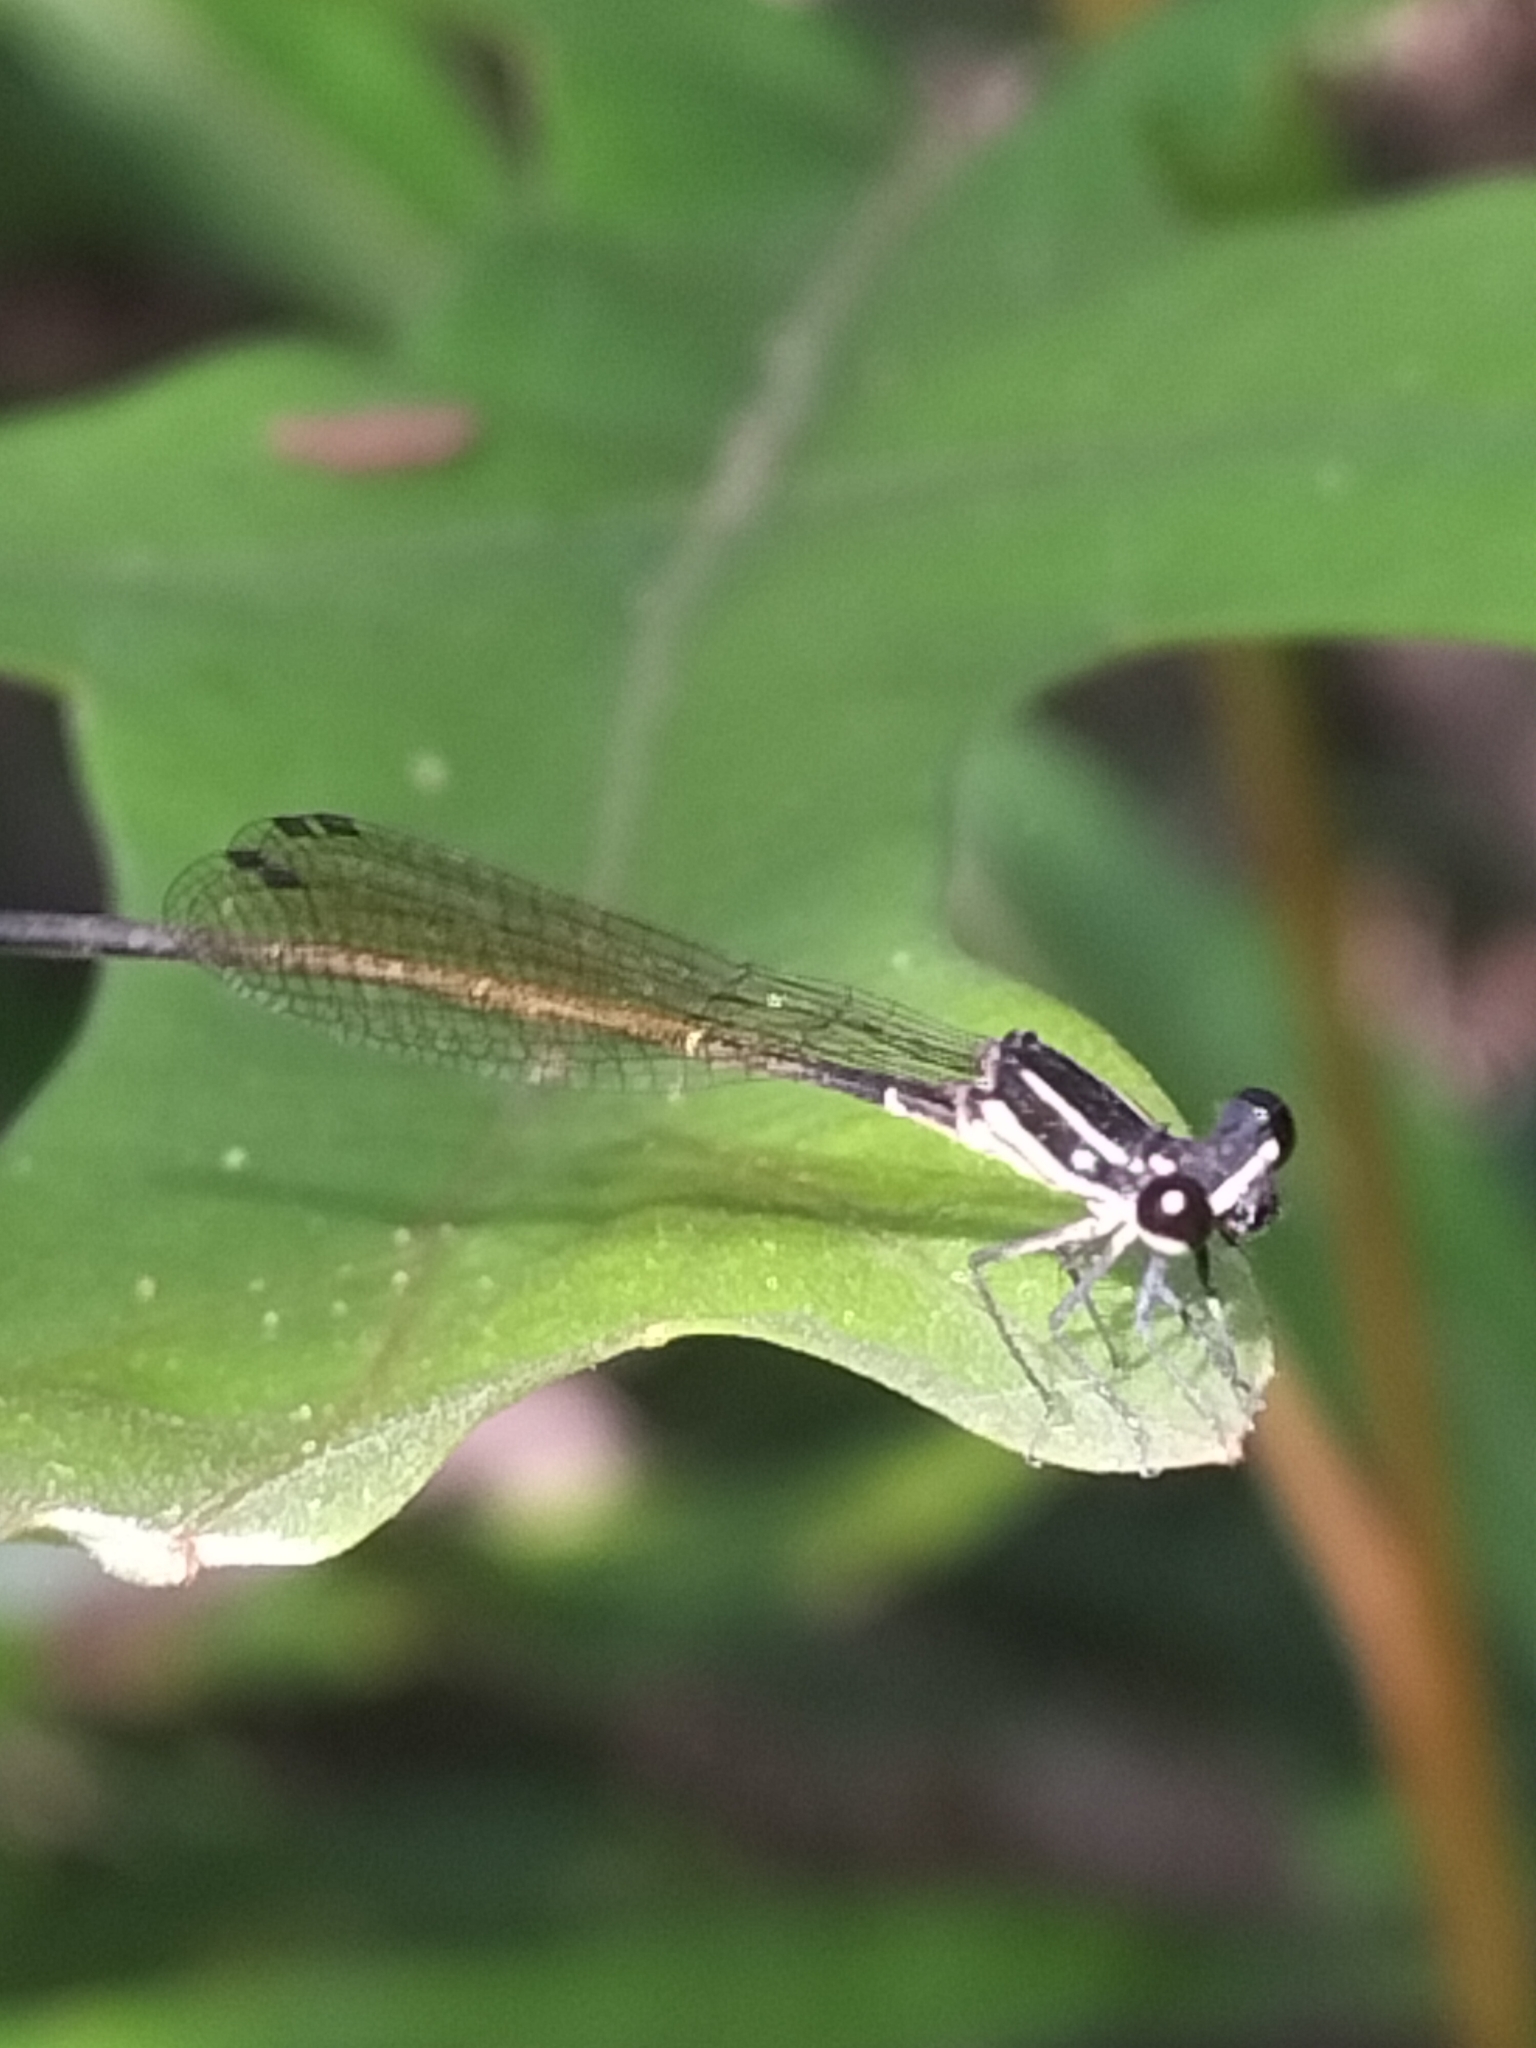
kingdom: Animalia
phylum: Arthropoda
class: Insecta
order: Odonata
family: Platycnemididae
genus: Nososticta
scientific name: Nososticta solitaria
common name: Fivespot threadtail
